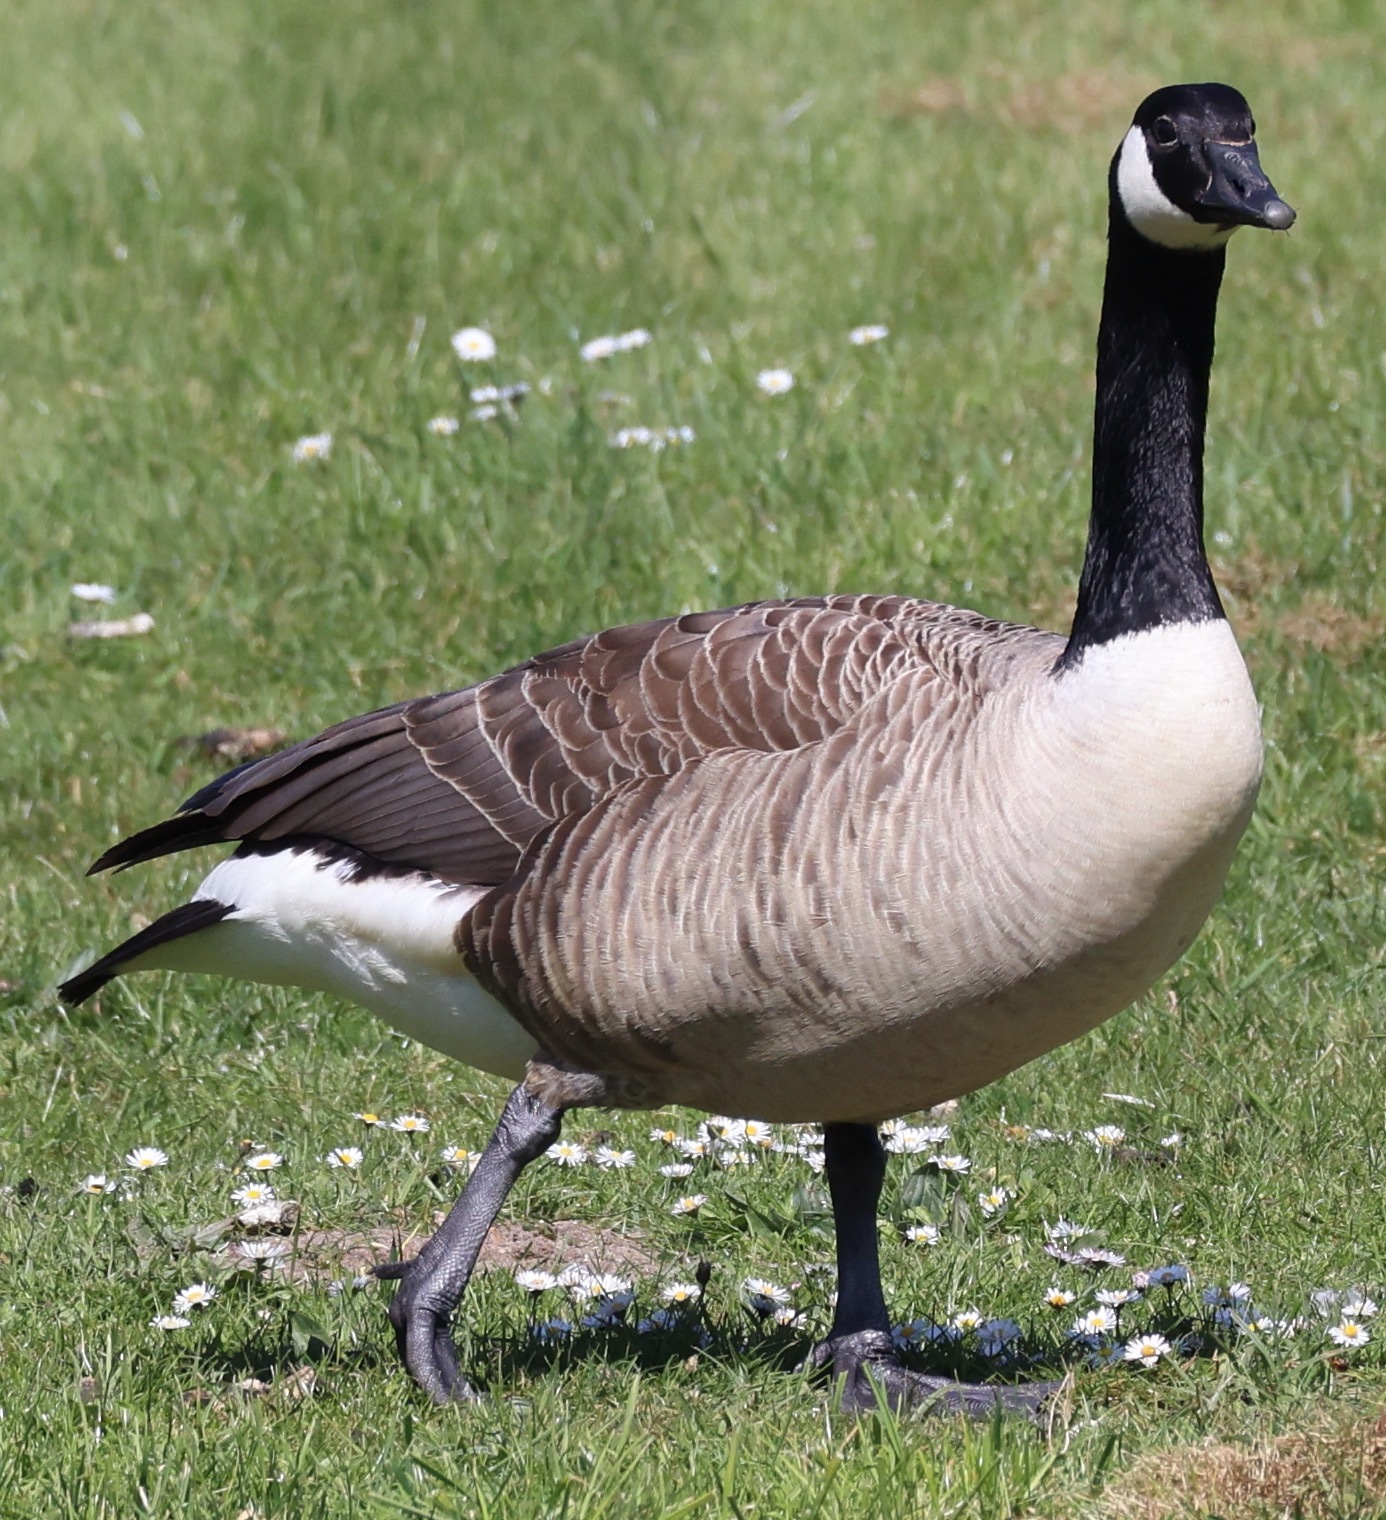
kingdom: Animalia
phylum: Chordata
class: Aves
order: Anseriformes
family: Anatidae
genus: Branta
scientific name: Branta canadensis
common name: Canada goose
